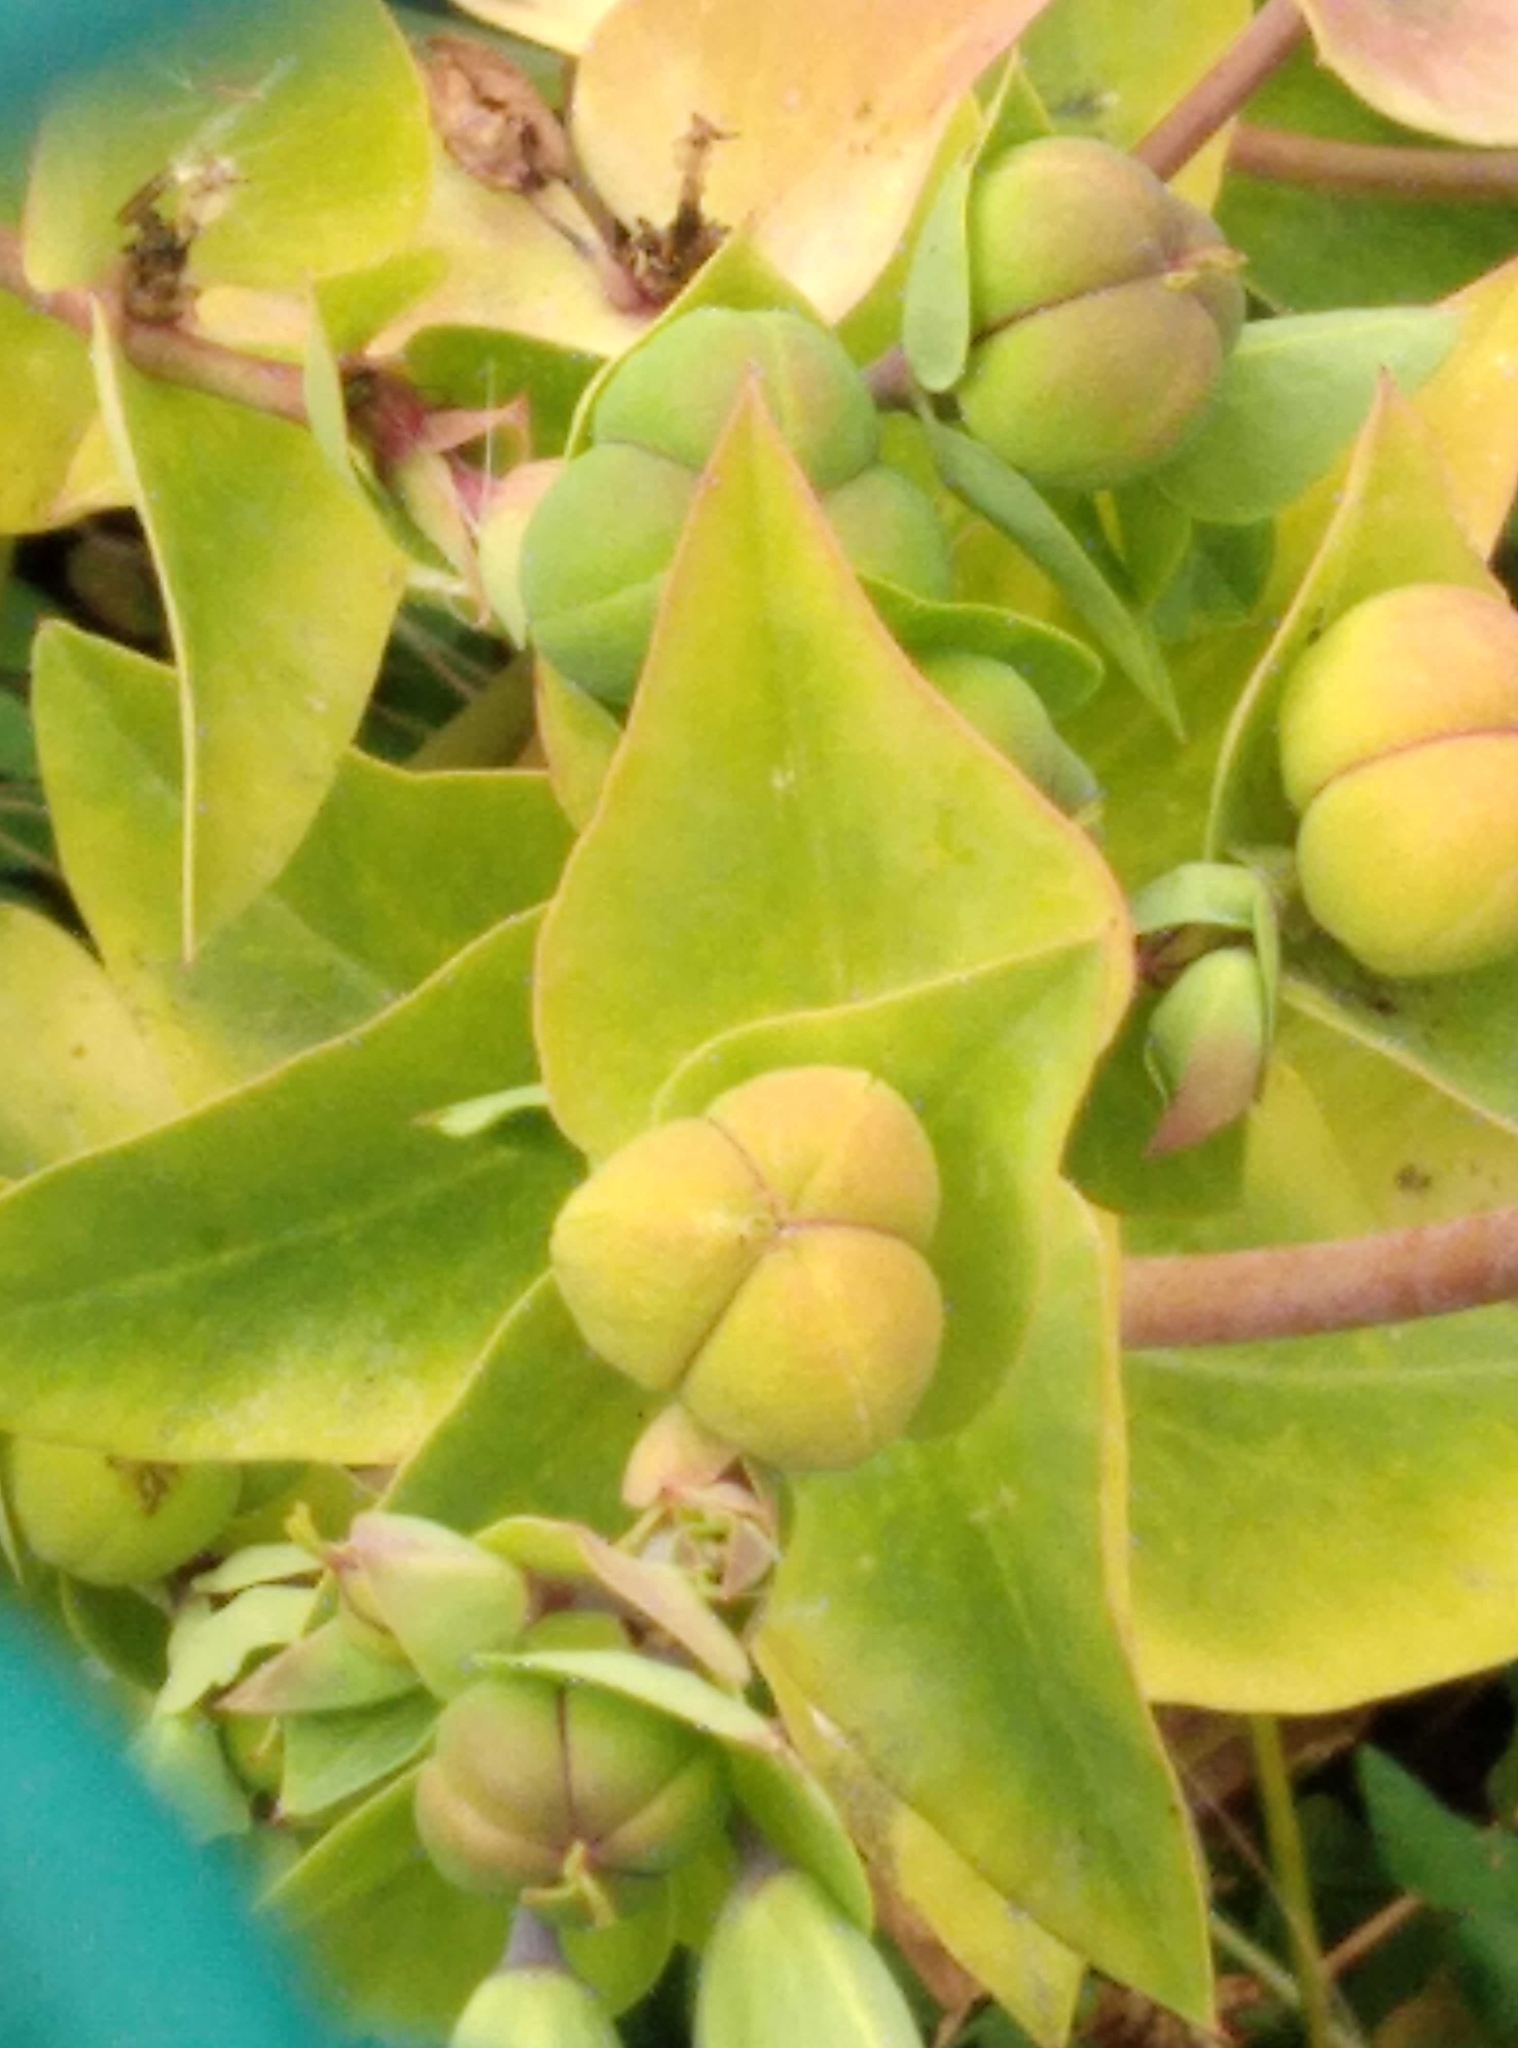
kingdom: Plantae
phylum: Tracheophyta
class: Magnoliopsida
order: Malpighiales
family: Euphorbiaceae
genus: Euphorbia
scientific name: Euphorbia lathyris
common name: Caper spurge
